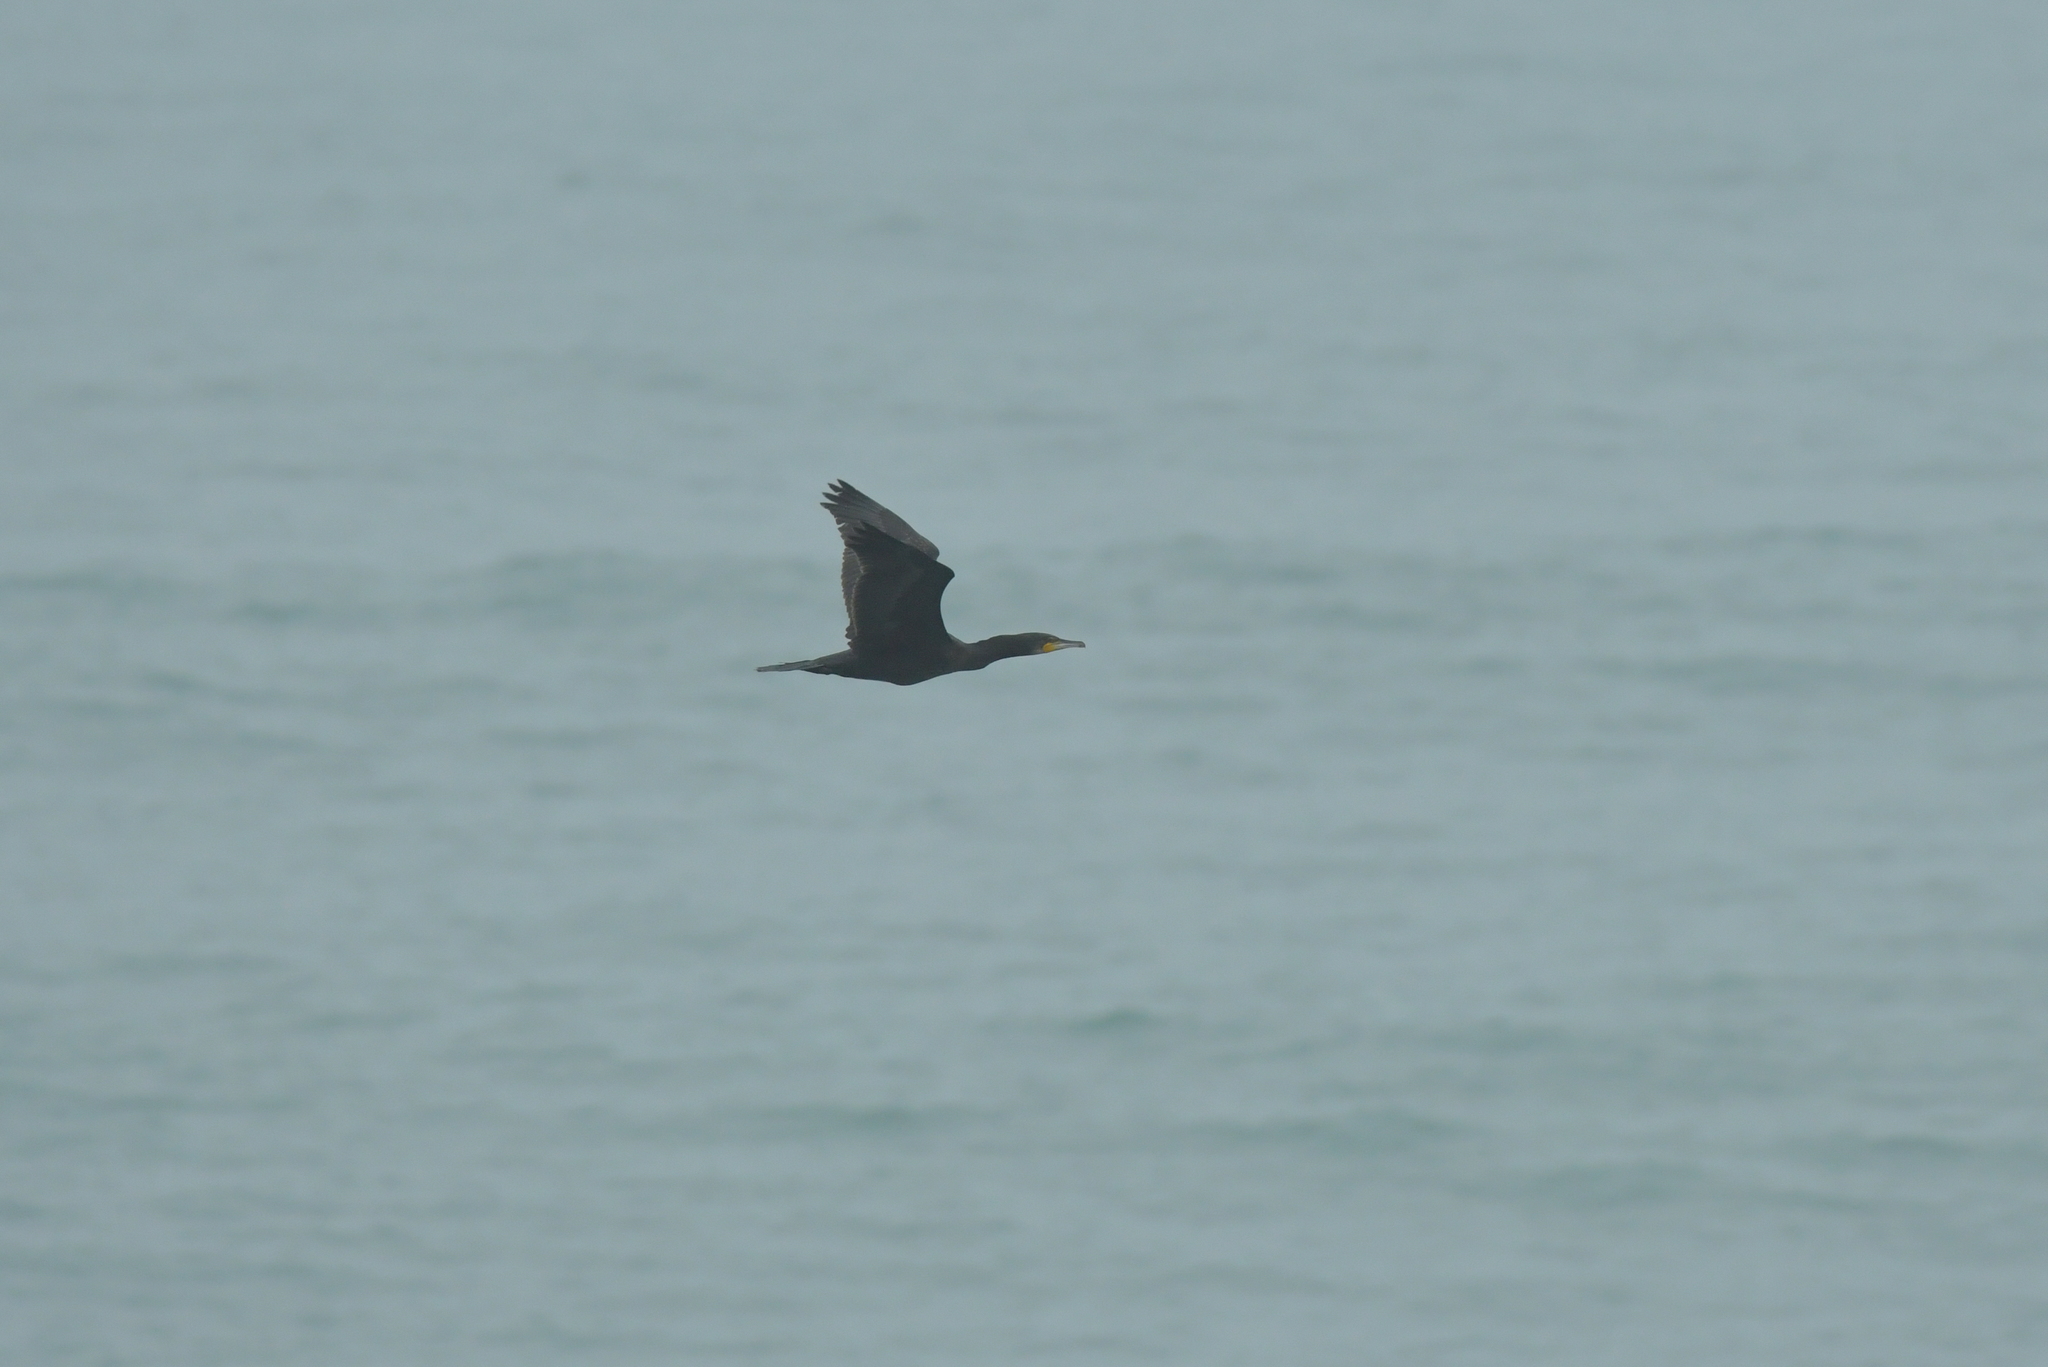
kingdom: Animalia
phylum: Chordata
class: Aves
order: Suliformes
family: Phalacrocoracidae
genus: Phalacrocorax
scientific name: Phalacrocorax carbo
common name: Great cormorant
